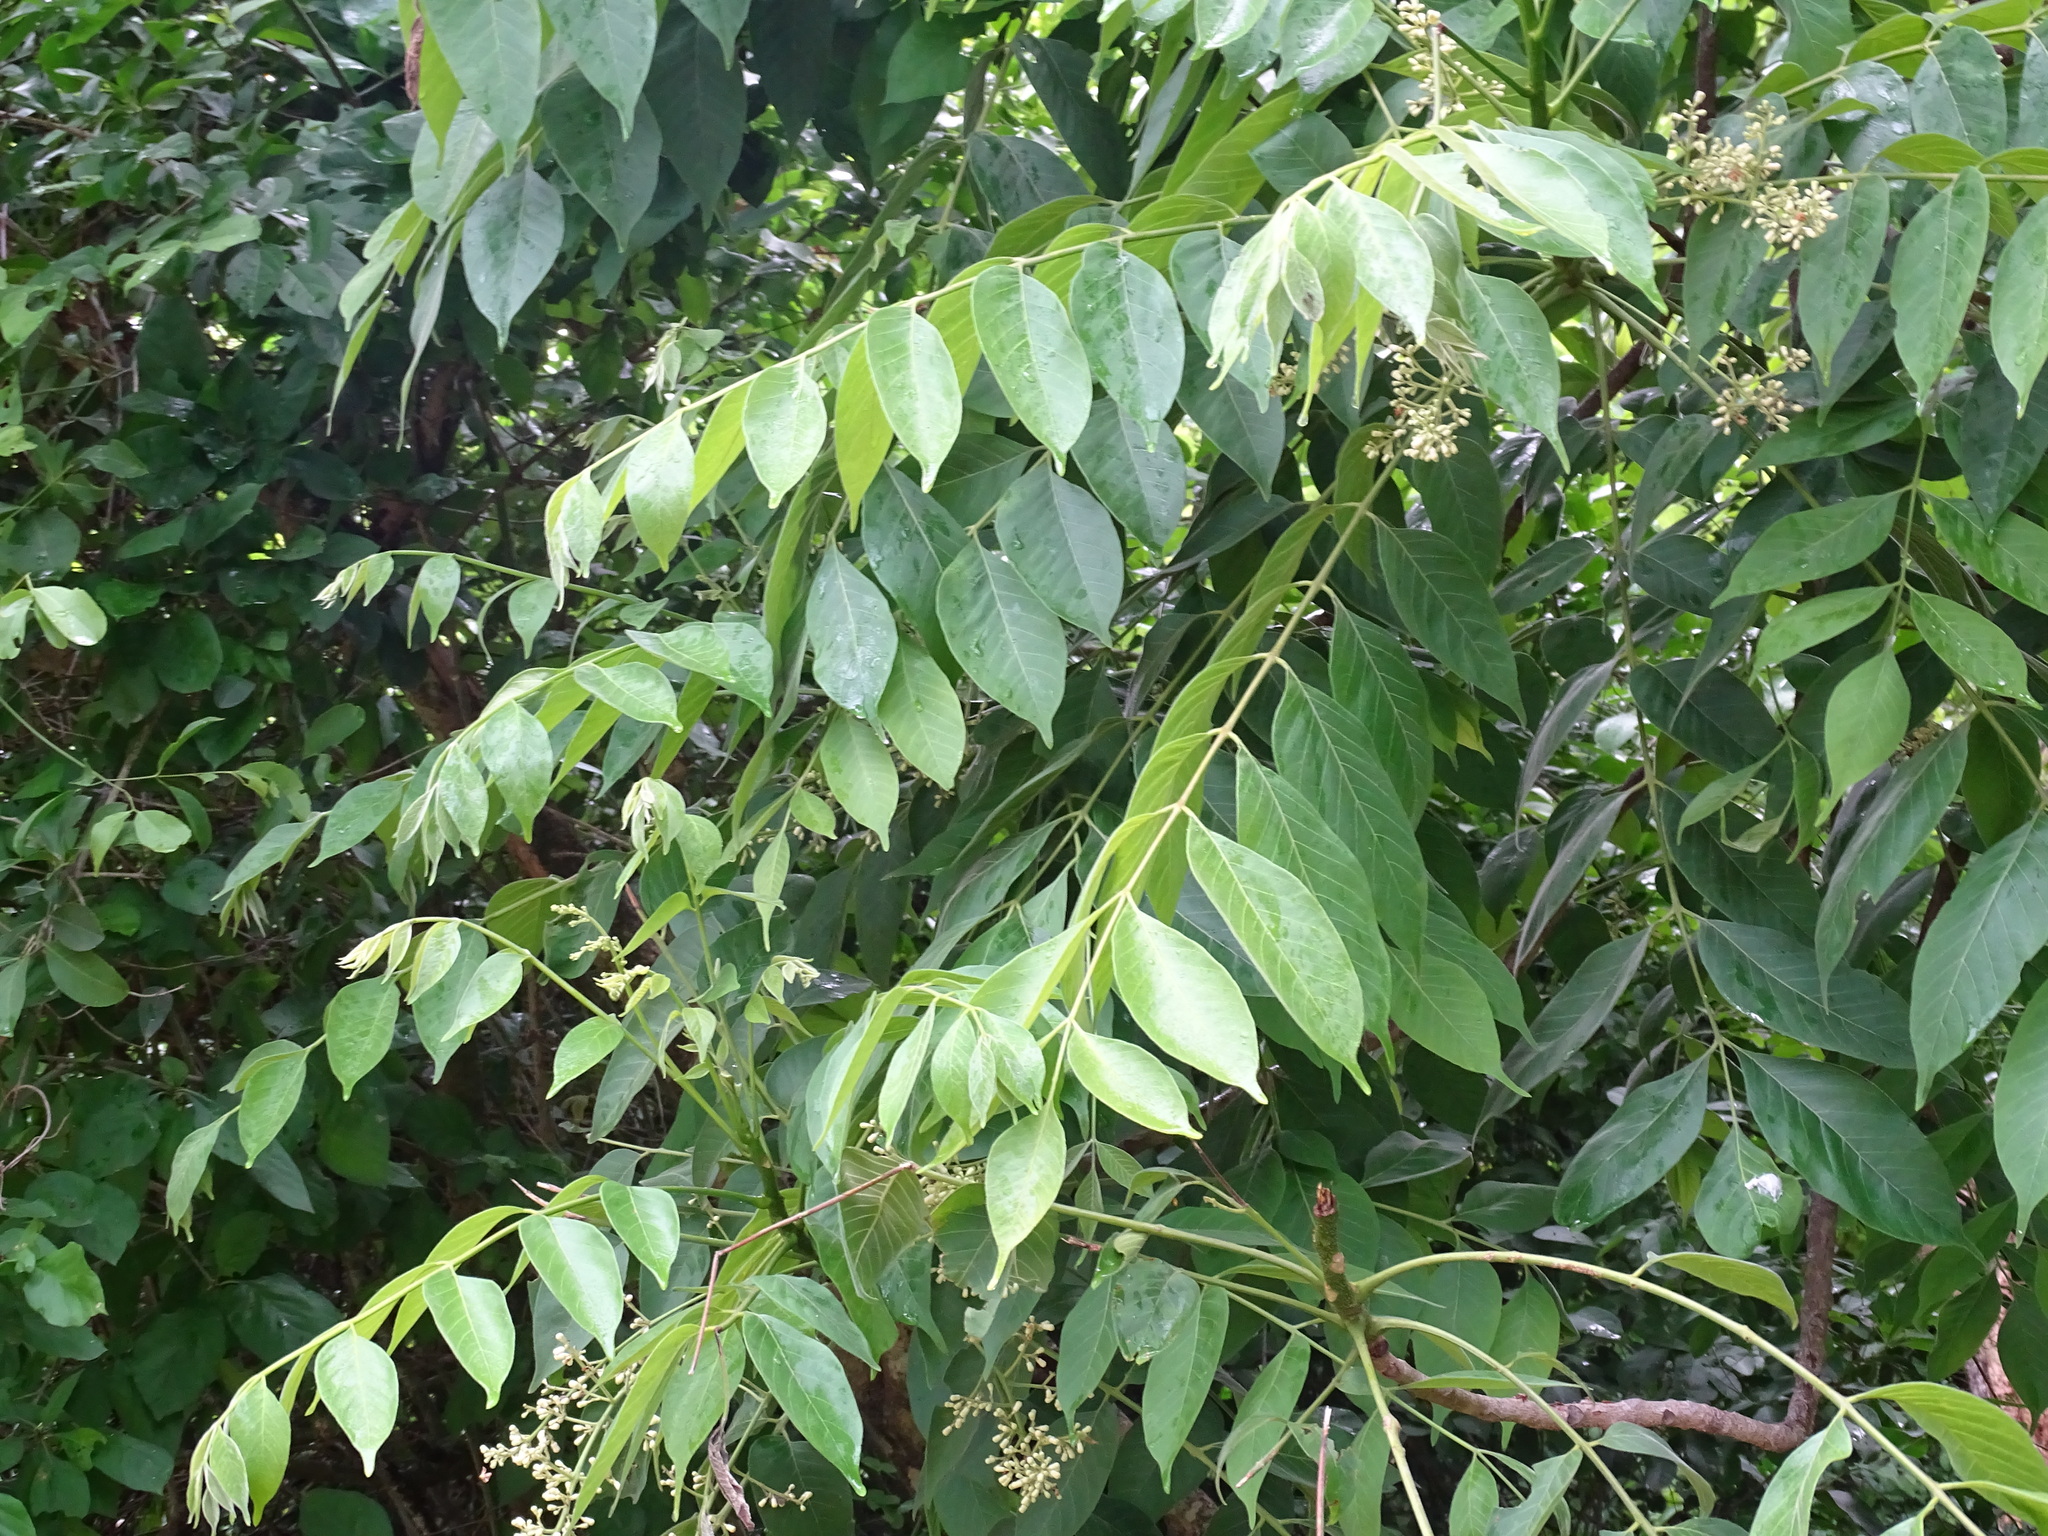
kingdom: Plantae
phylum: Tracheophyta
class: Magnoliopsida
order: Sapindales
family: Meliaceae
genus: Trichilia
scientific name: Trichilia hirta
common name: Red-cedar
